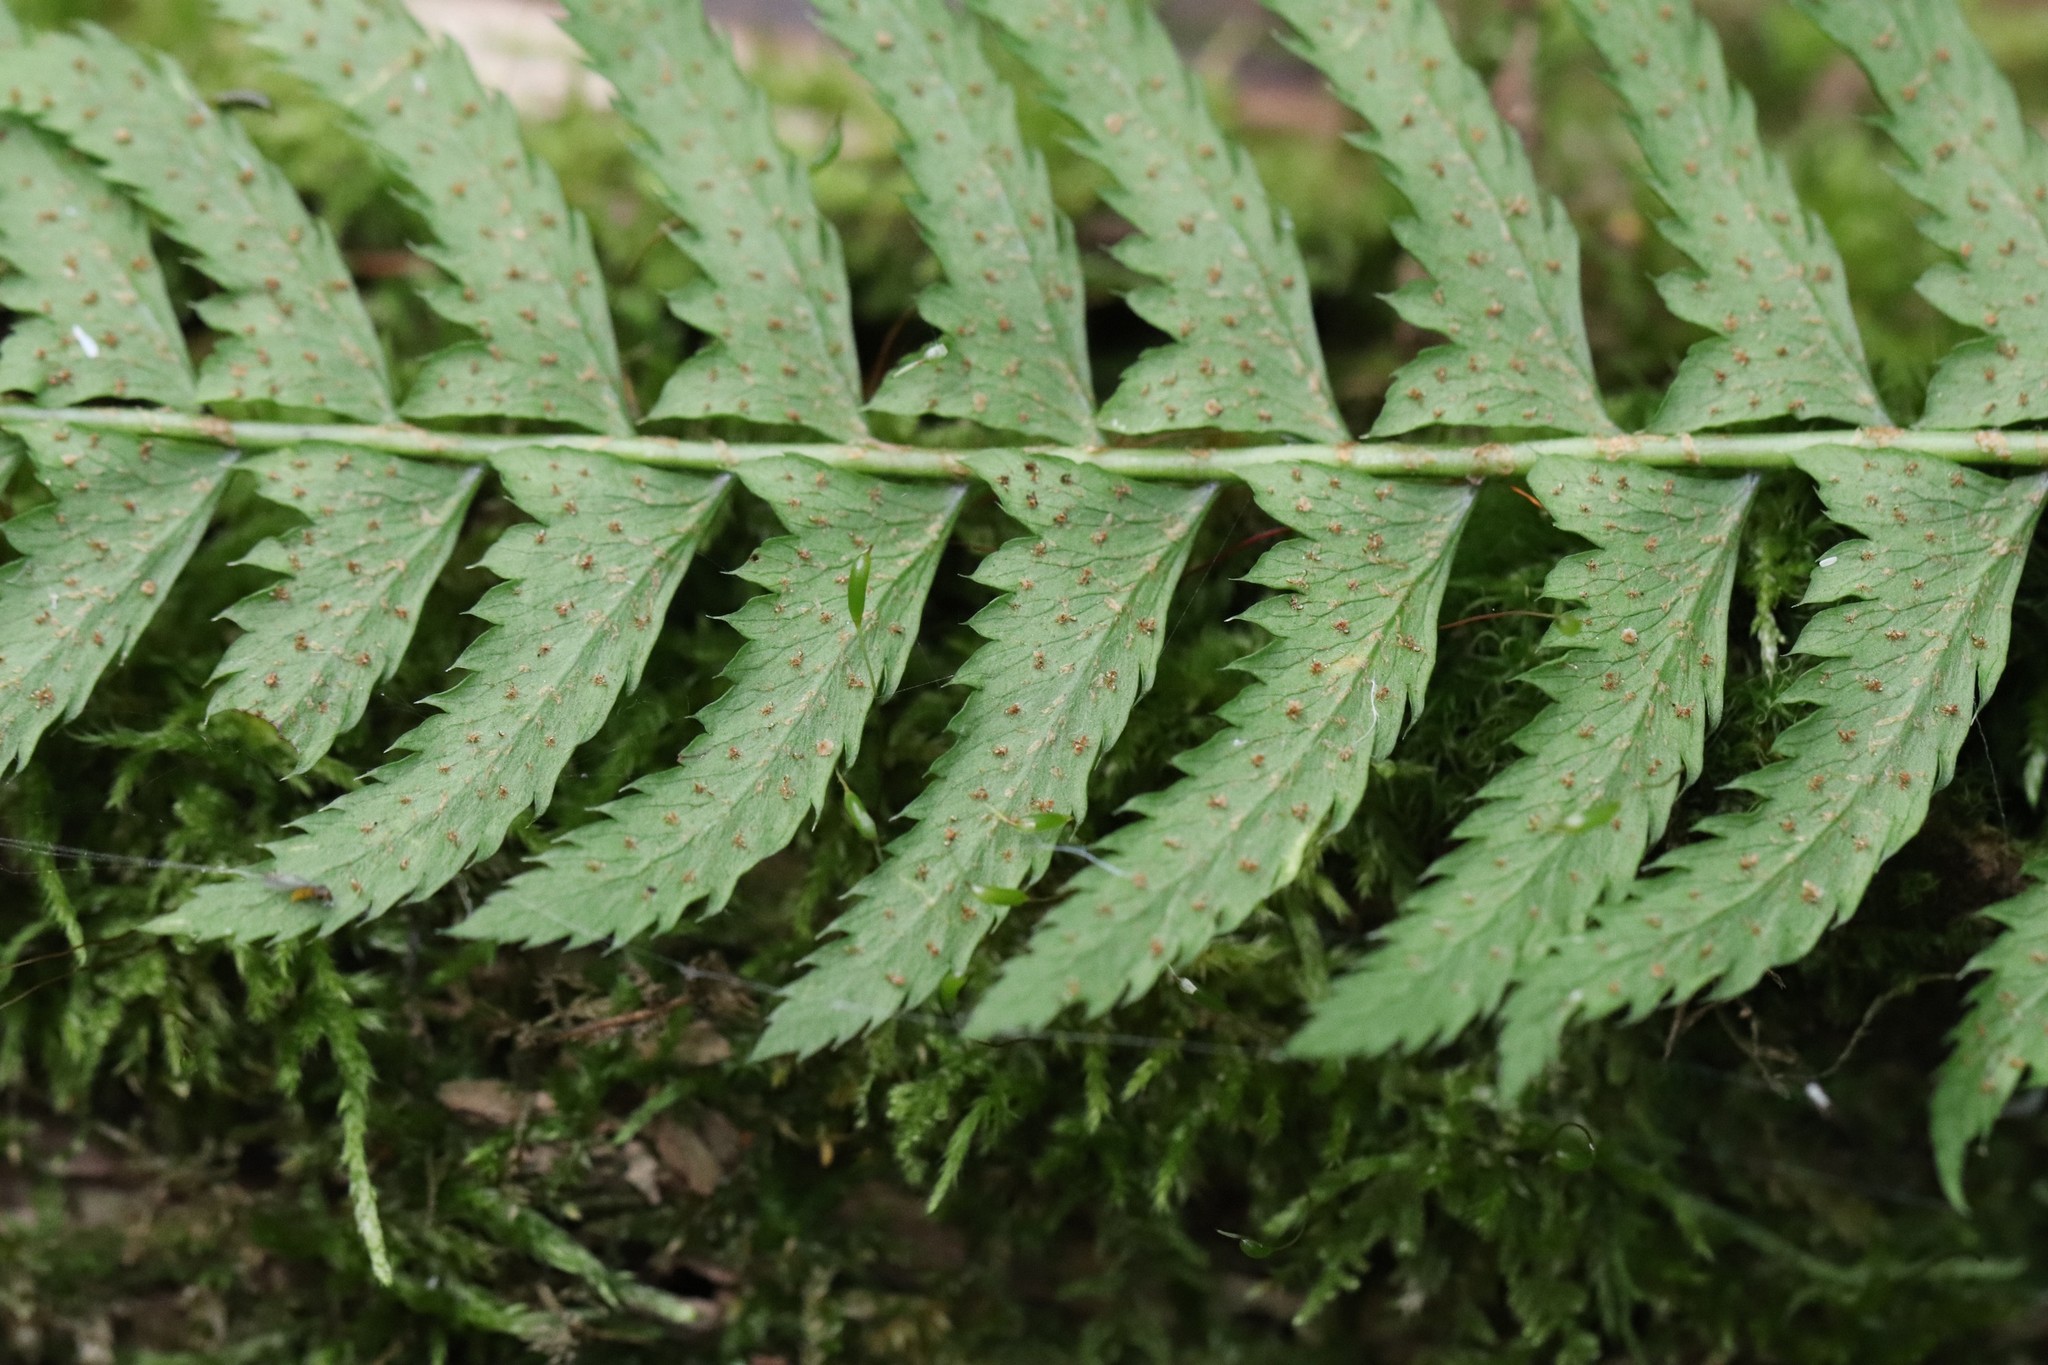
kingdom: Plantae
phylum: Tracheophyta
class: Polypodiopsida
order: Polypodiales
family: Dryopteridaceae
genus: Polystichum
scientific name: Polystichum tripteron
